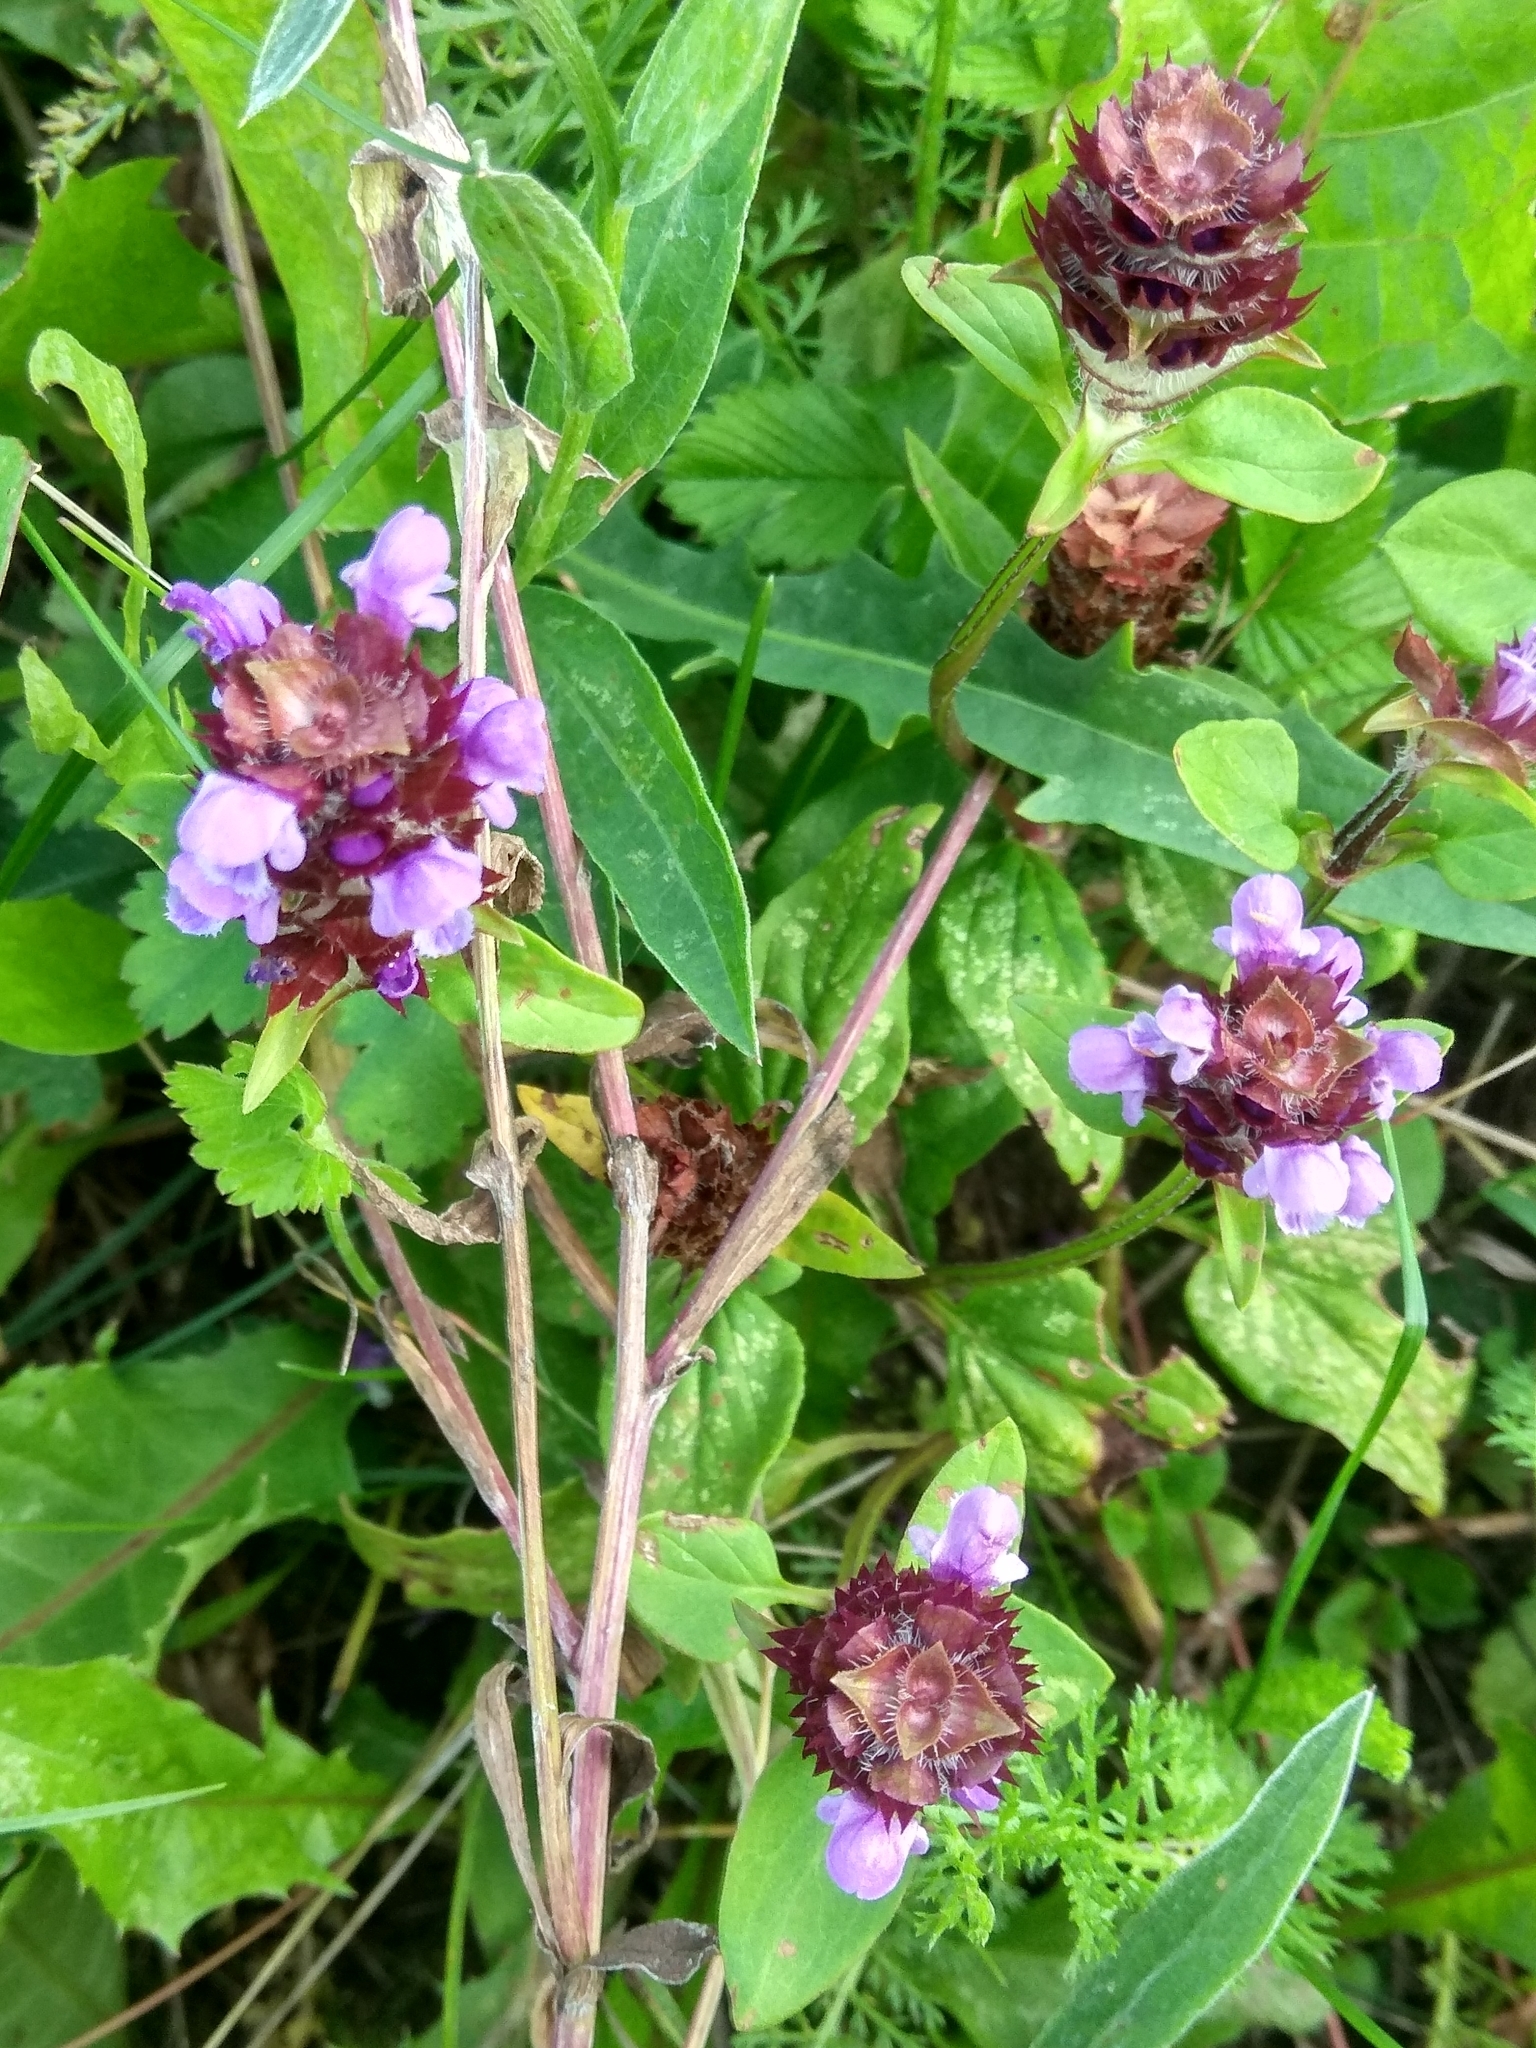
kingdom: Plantae
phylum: Tracheophyta
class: Magnoliopsida
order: Lamiales
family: Lamiaceae
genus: Prunella
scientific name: Prunella vulgaris
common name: Heal-all
